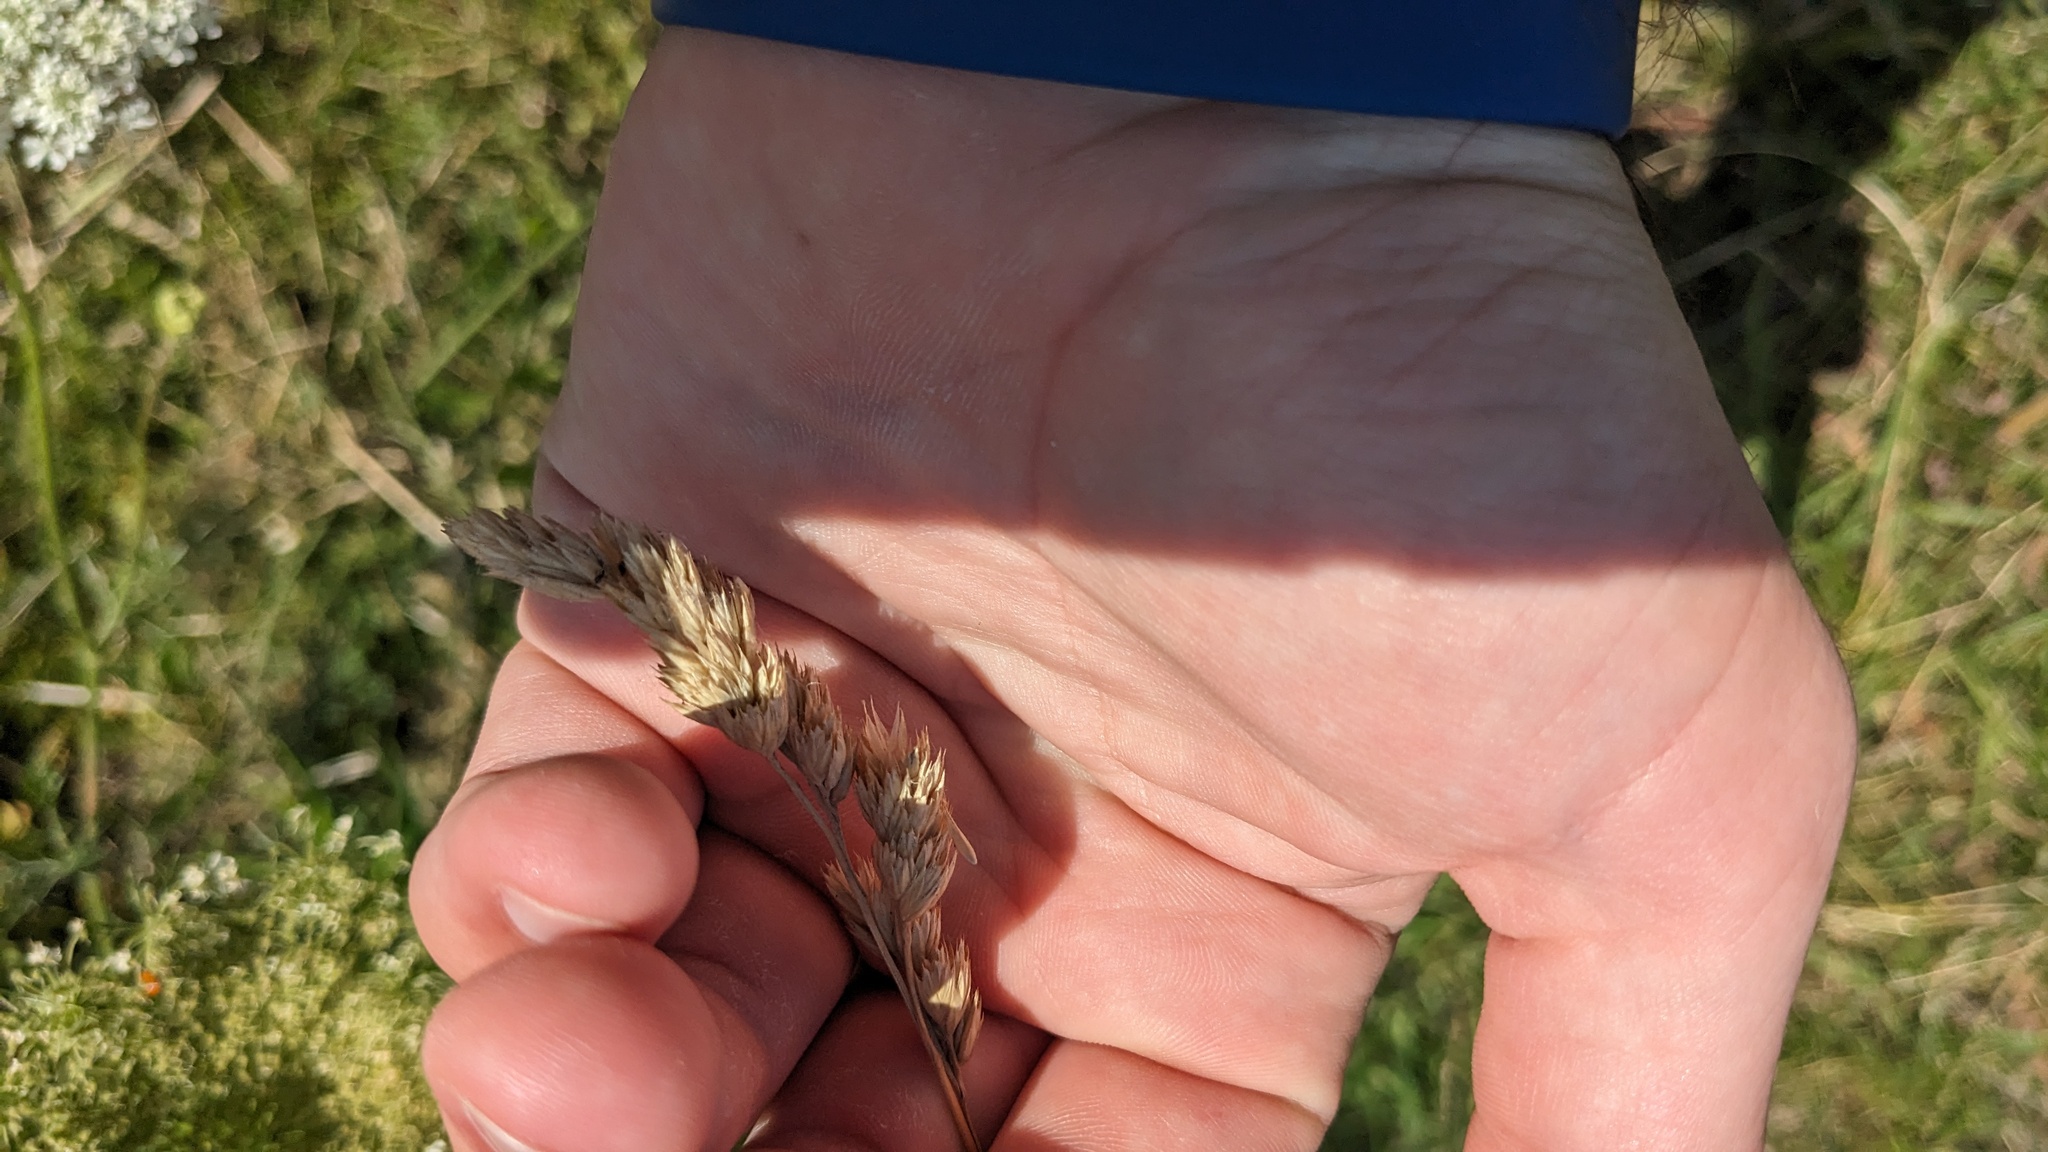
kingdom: Plantae
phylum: Tracheophyta
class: Liliopsida
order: Poales
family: Poaceae
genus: Dactylis
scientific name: Dactylis glomerata
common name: Orchardgrass
